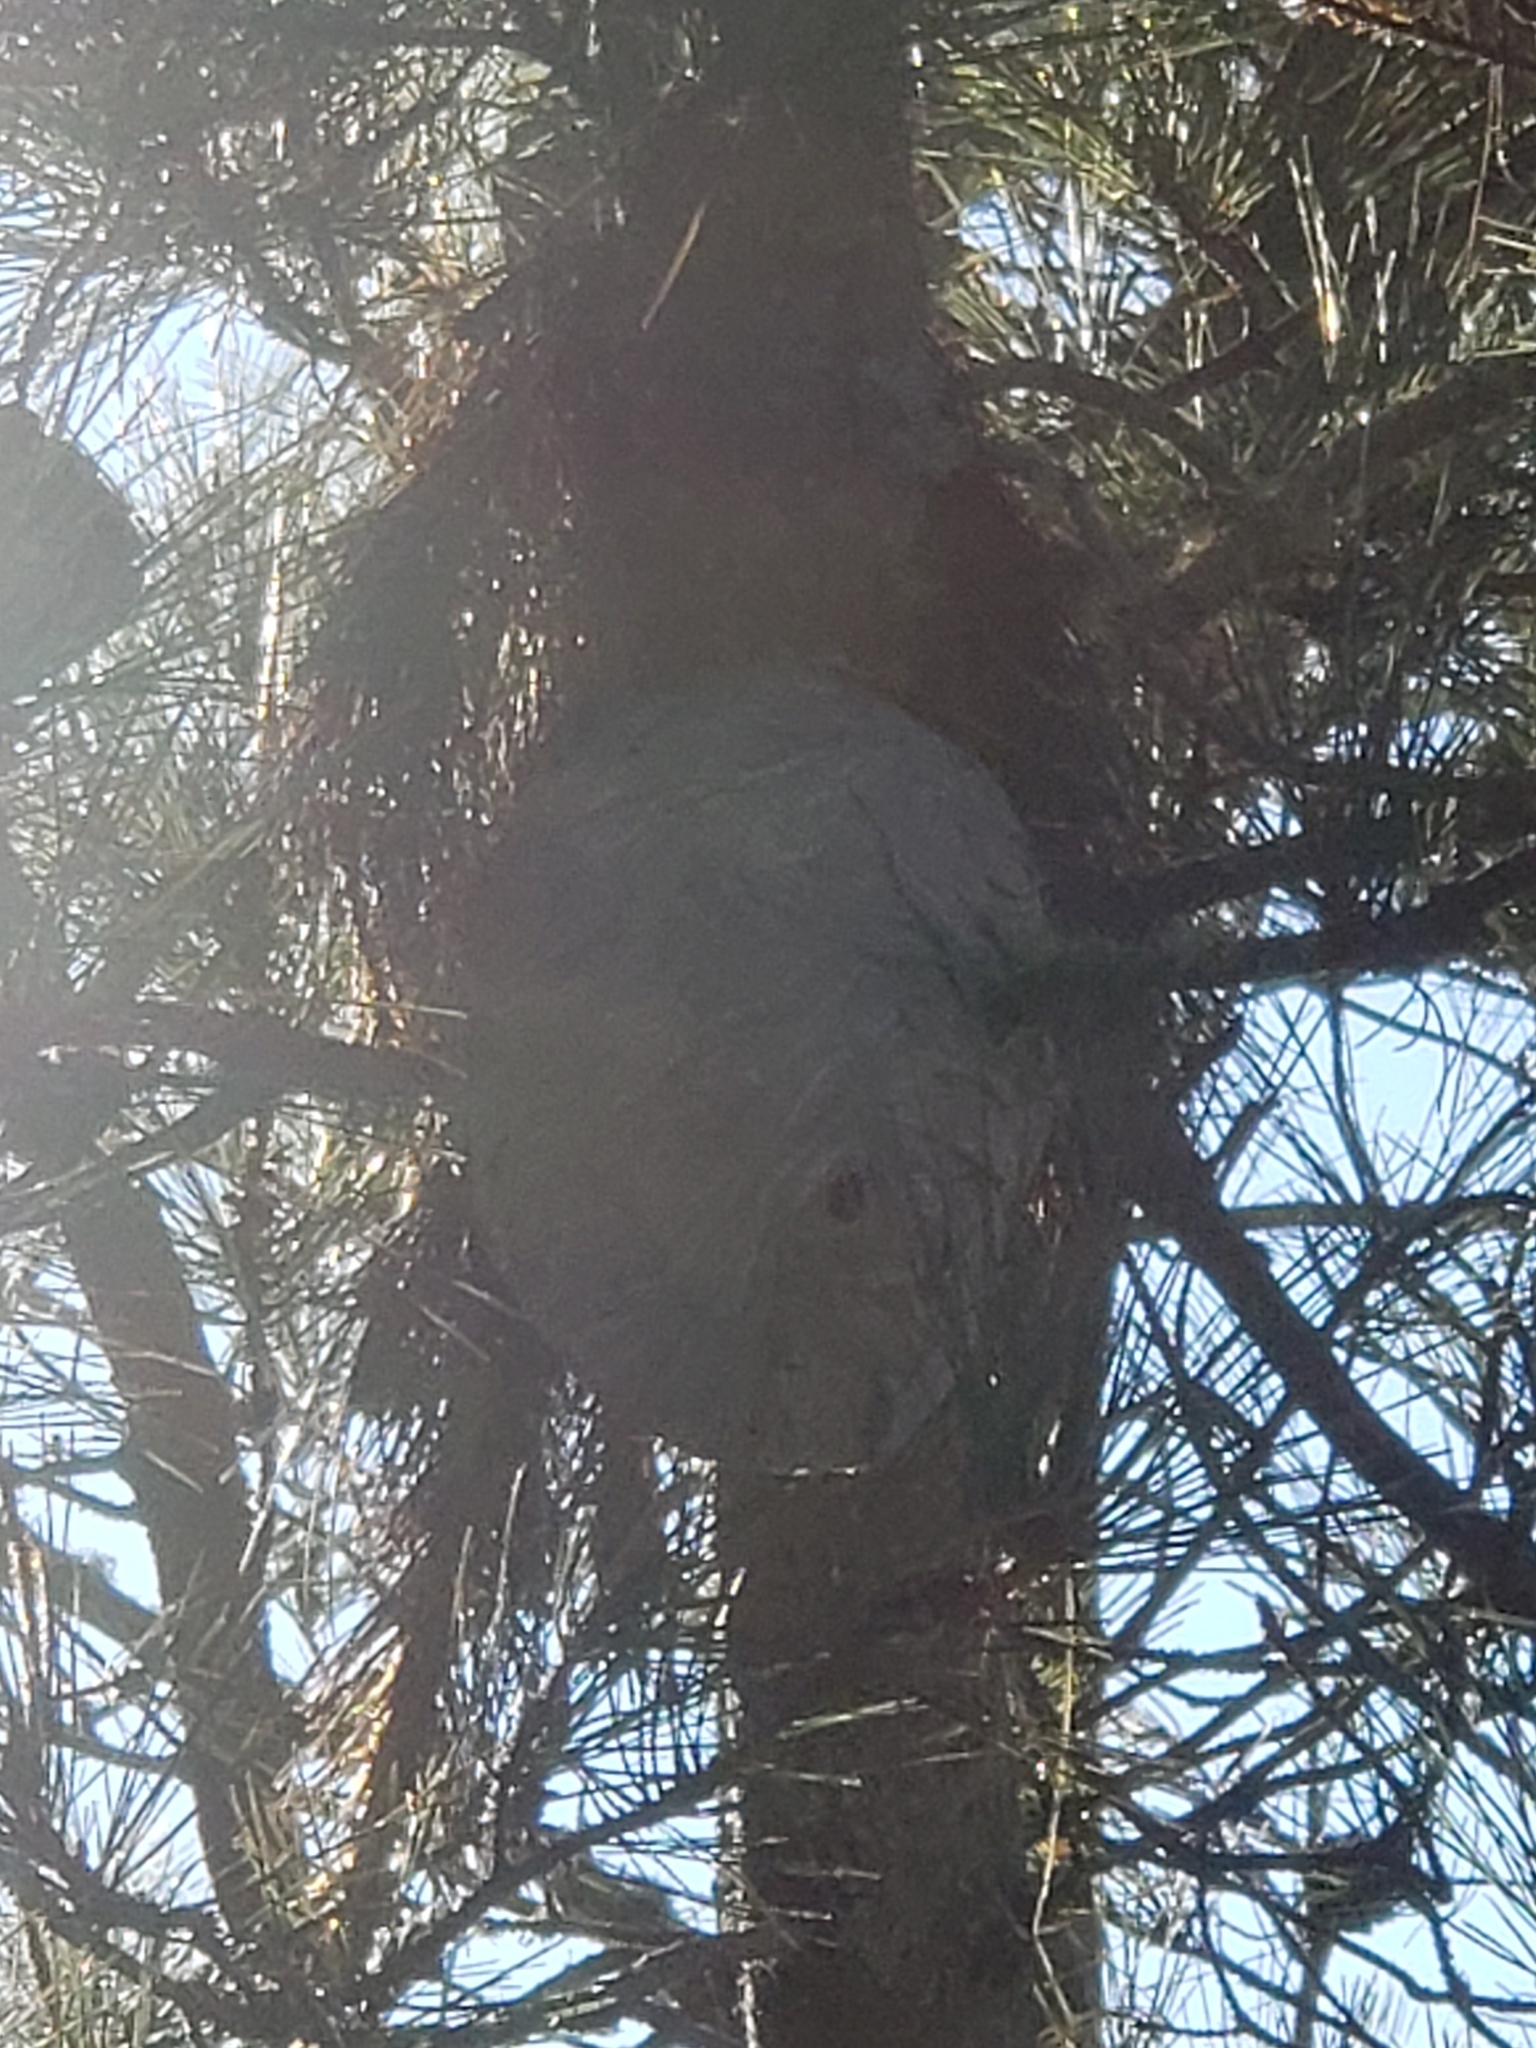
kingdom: Animalia
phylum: Arthropoda
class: Insecta
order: Hymenoptera
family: Vespidae
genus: Dolichovespula
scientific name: Dolichovespula arenaria
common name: Aerial yellowjacket
